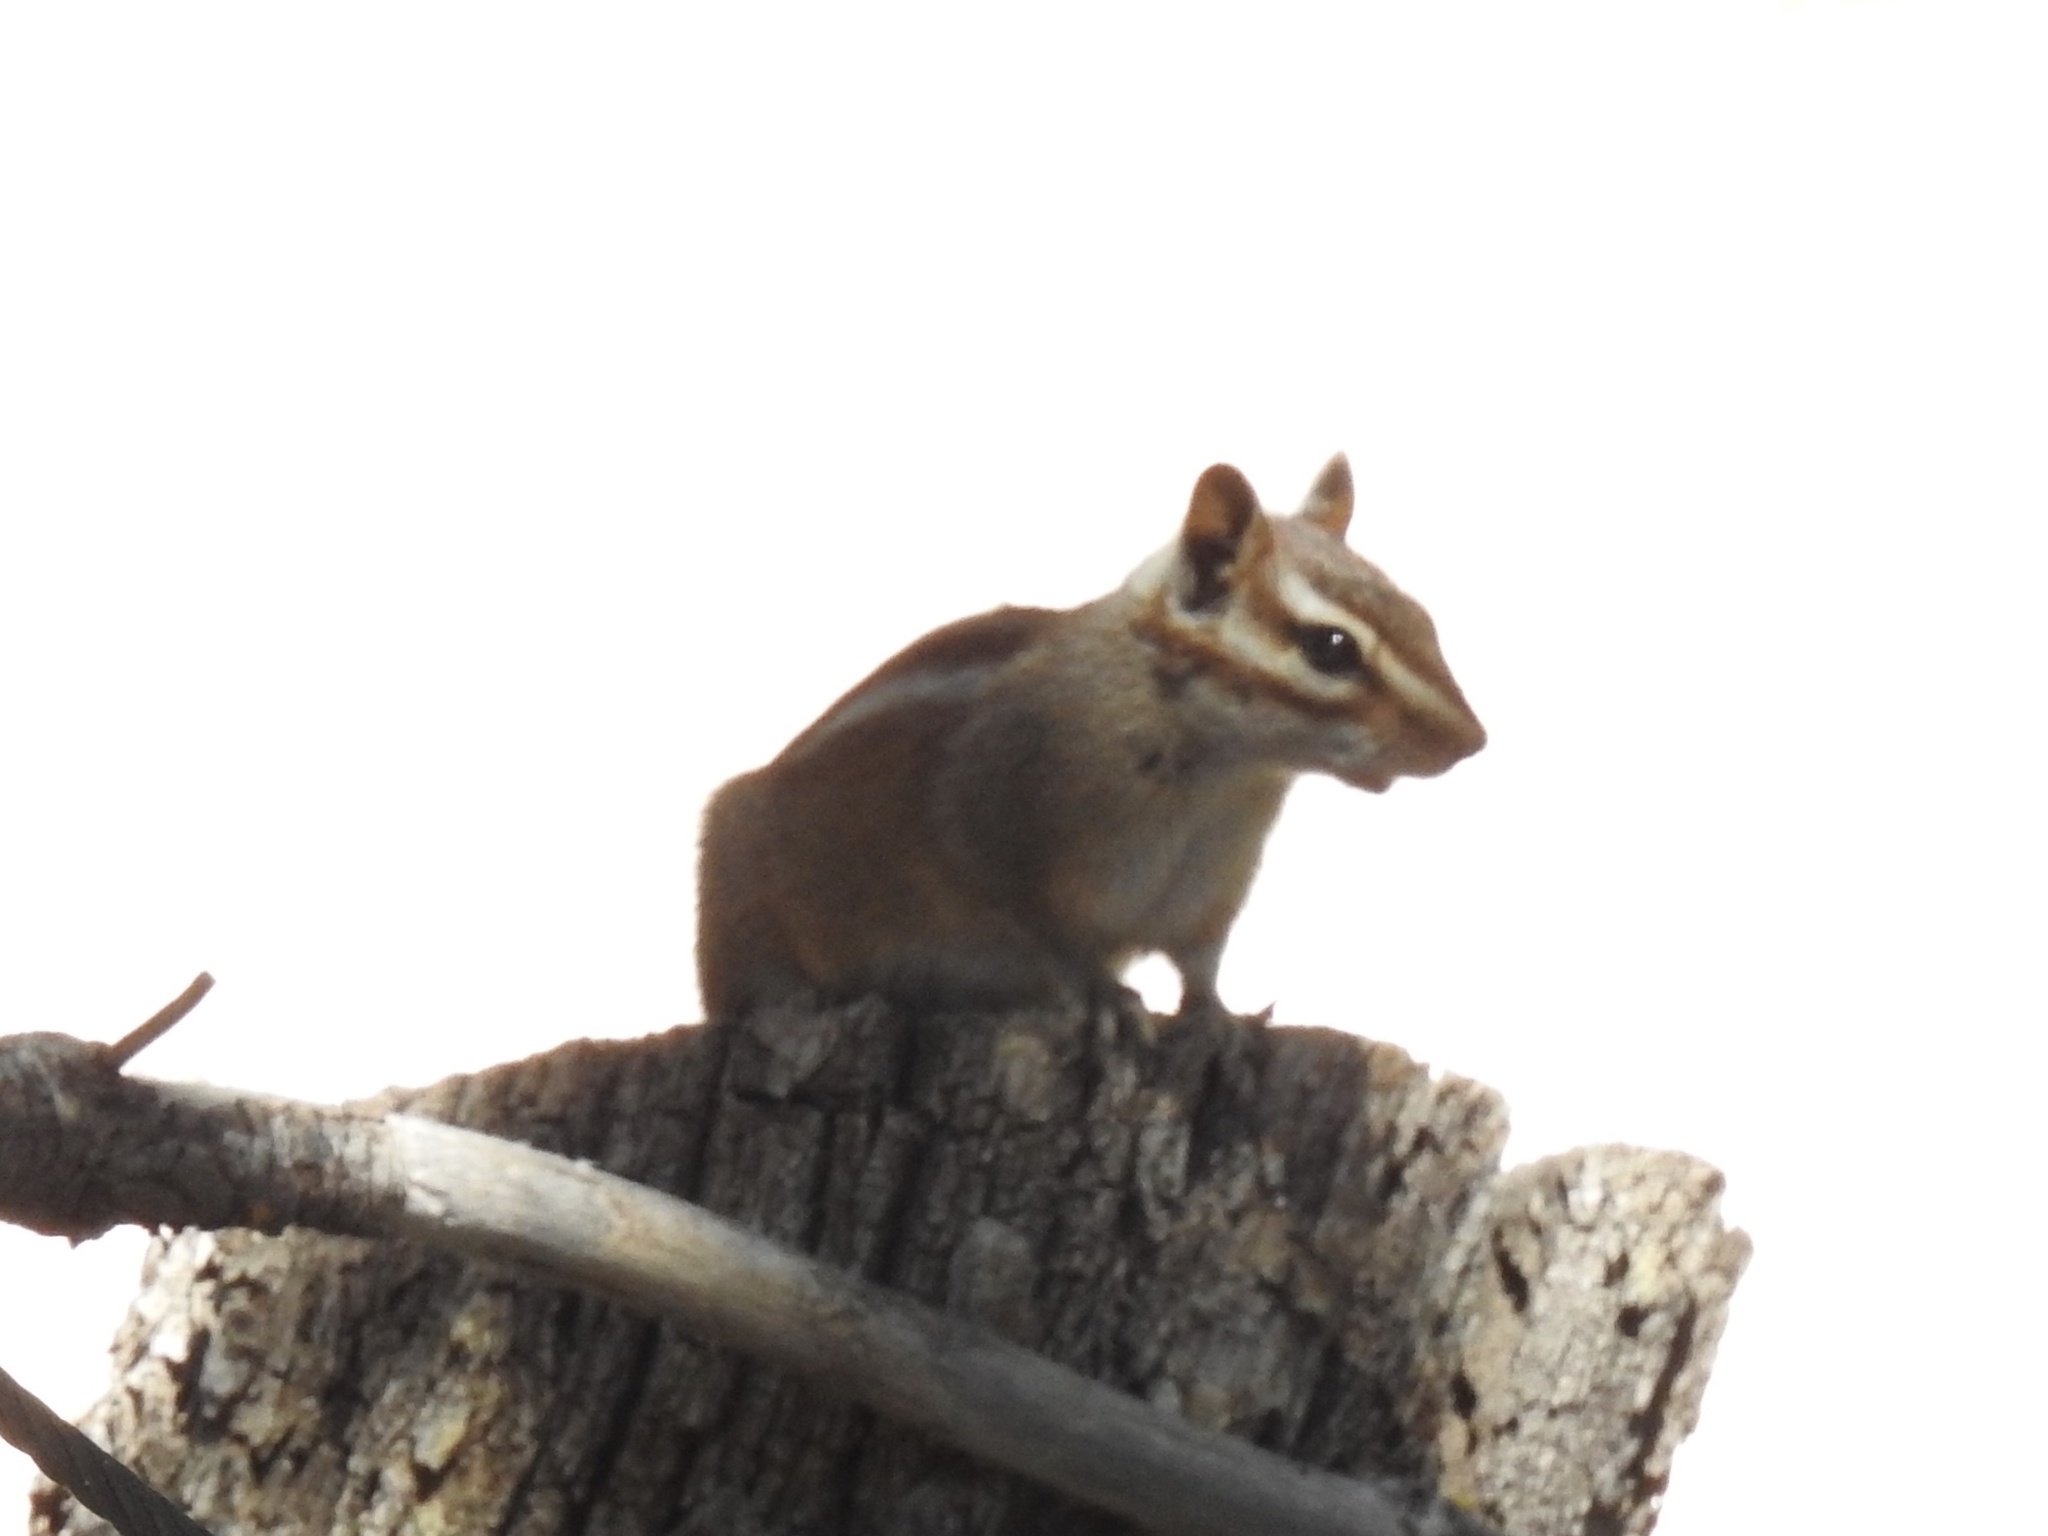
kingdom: Animalia
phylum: Chordata
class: Mammalia
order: Rodentia
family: Sciuridae
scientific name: Sciuridae
